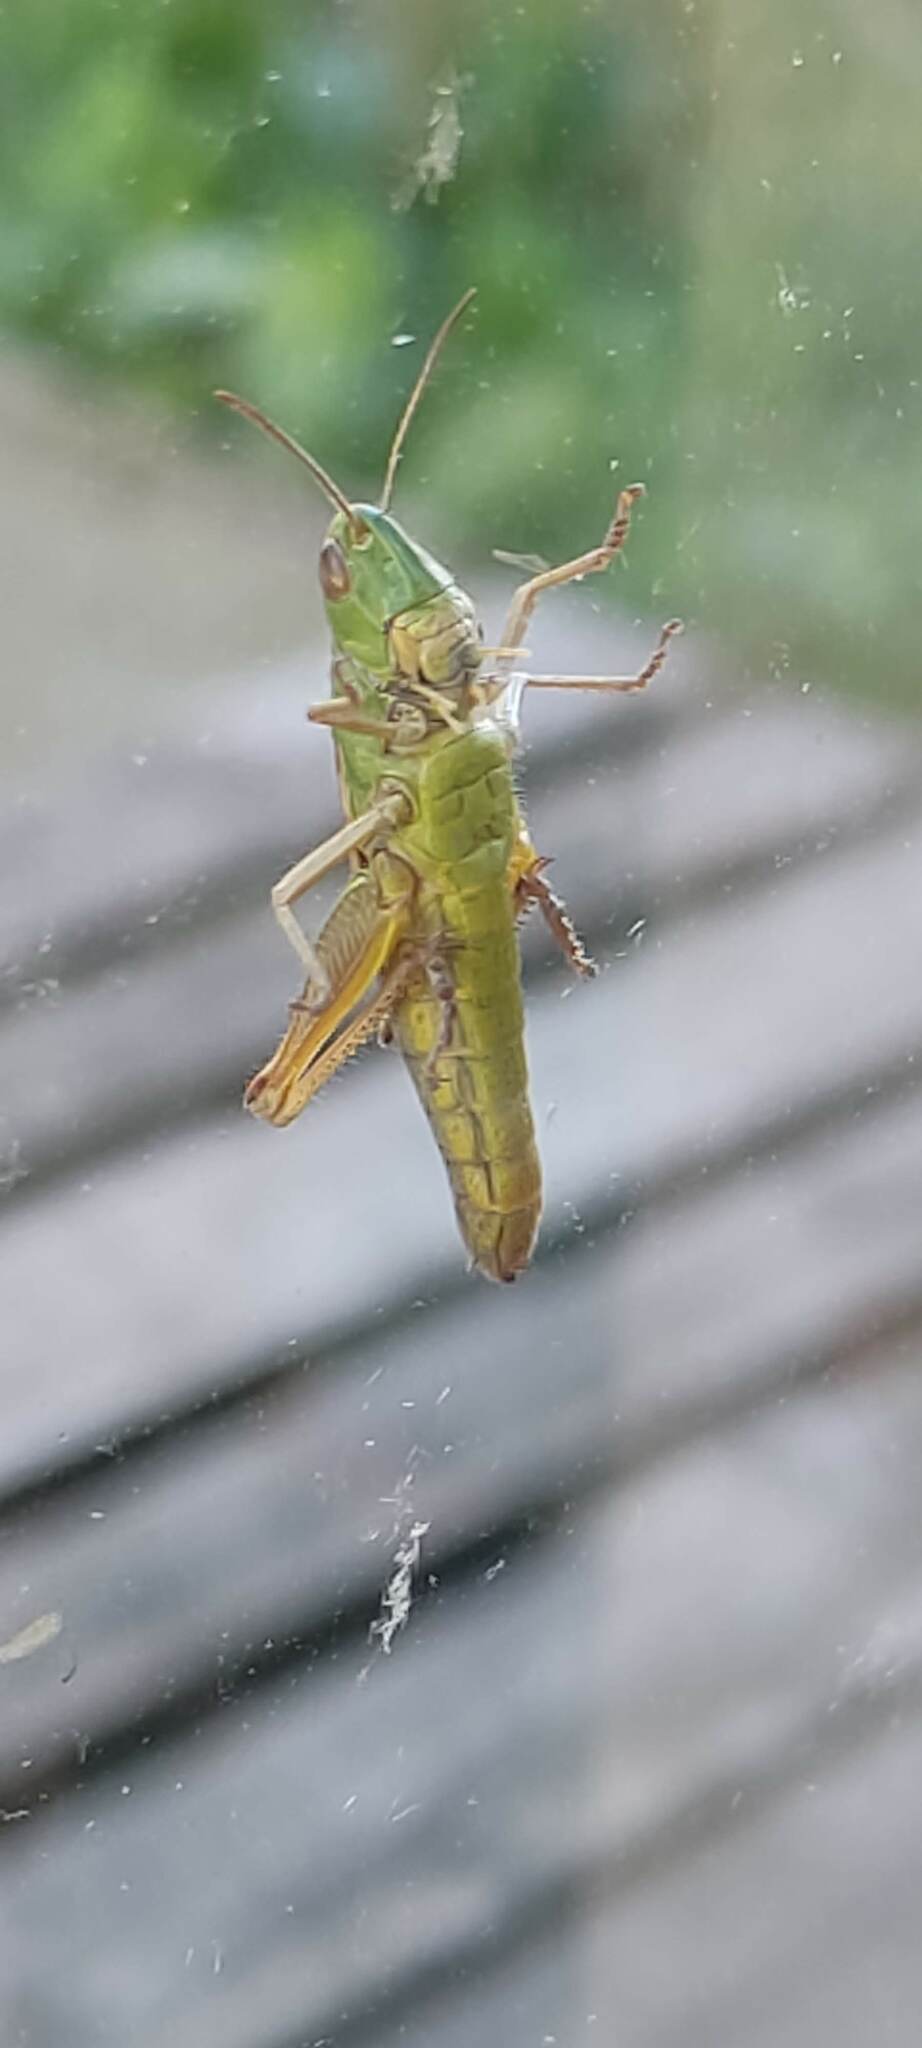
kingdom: Animalia
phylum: Arthropoda
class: Insecta
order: Orthoptera
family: Acrididae
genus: Pseudochorthippus
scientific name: Pseudochorthippus parallelus
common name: Meadow grasshopper
